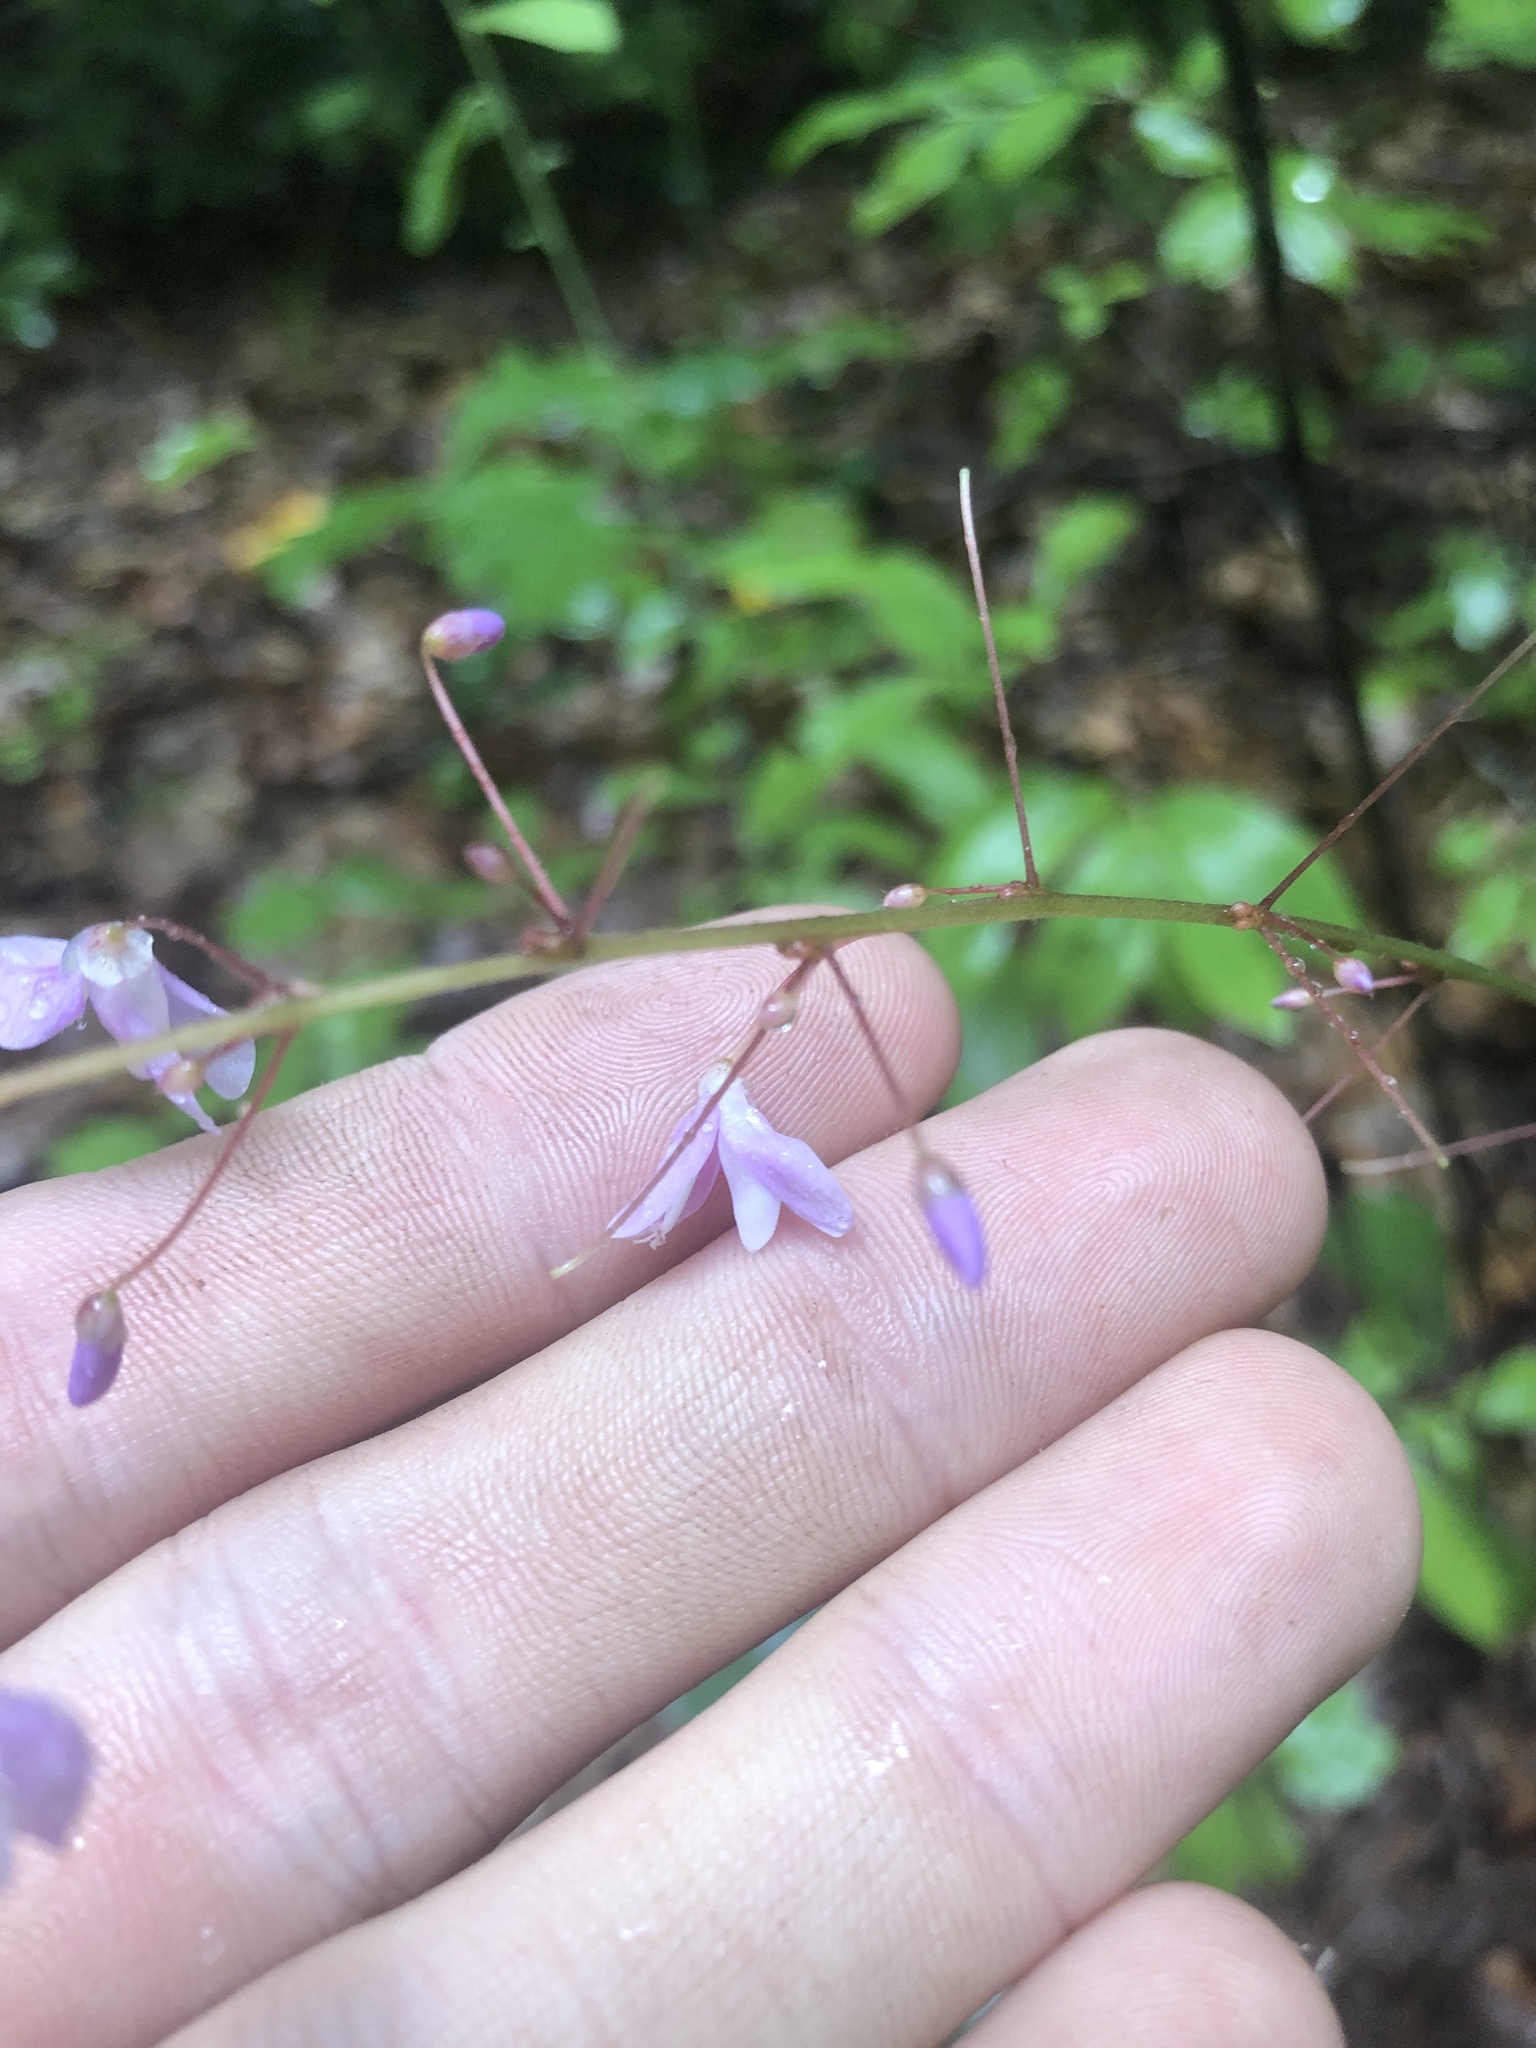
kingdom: Plantae
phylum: Tracheophyta
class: Magnoliopsida
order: Fabales
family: Fabaceae
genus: Hylodesmum
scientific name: Hylodesmum nudiflorum
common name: Bare-stemmed tick-trefoil
